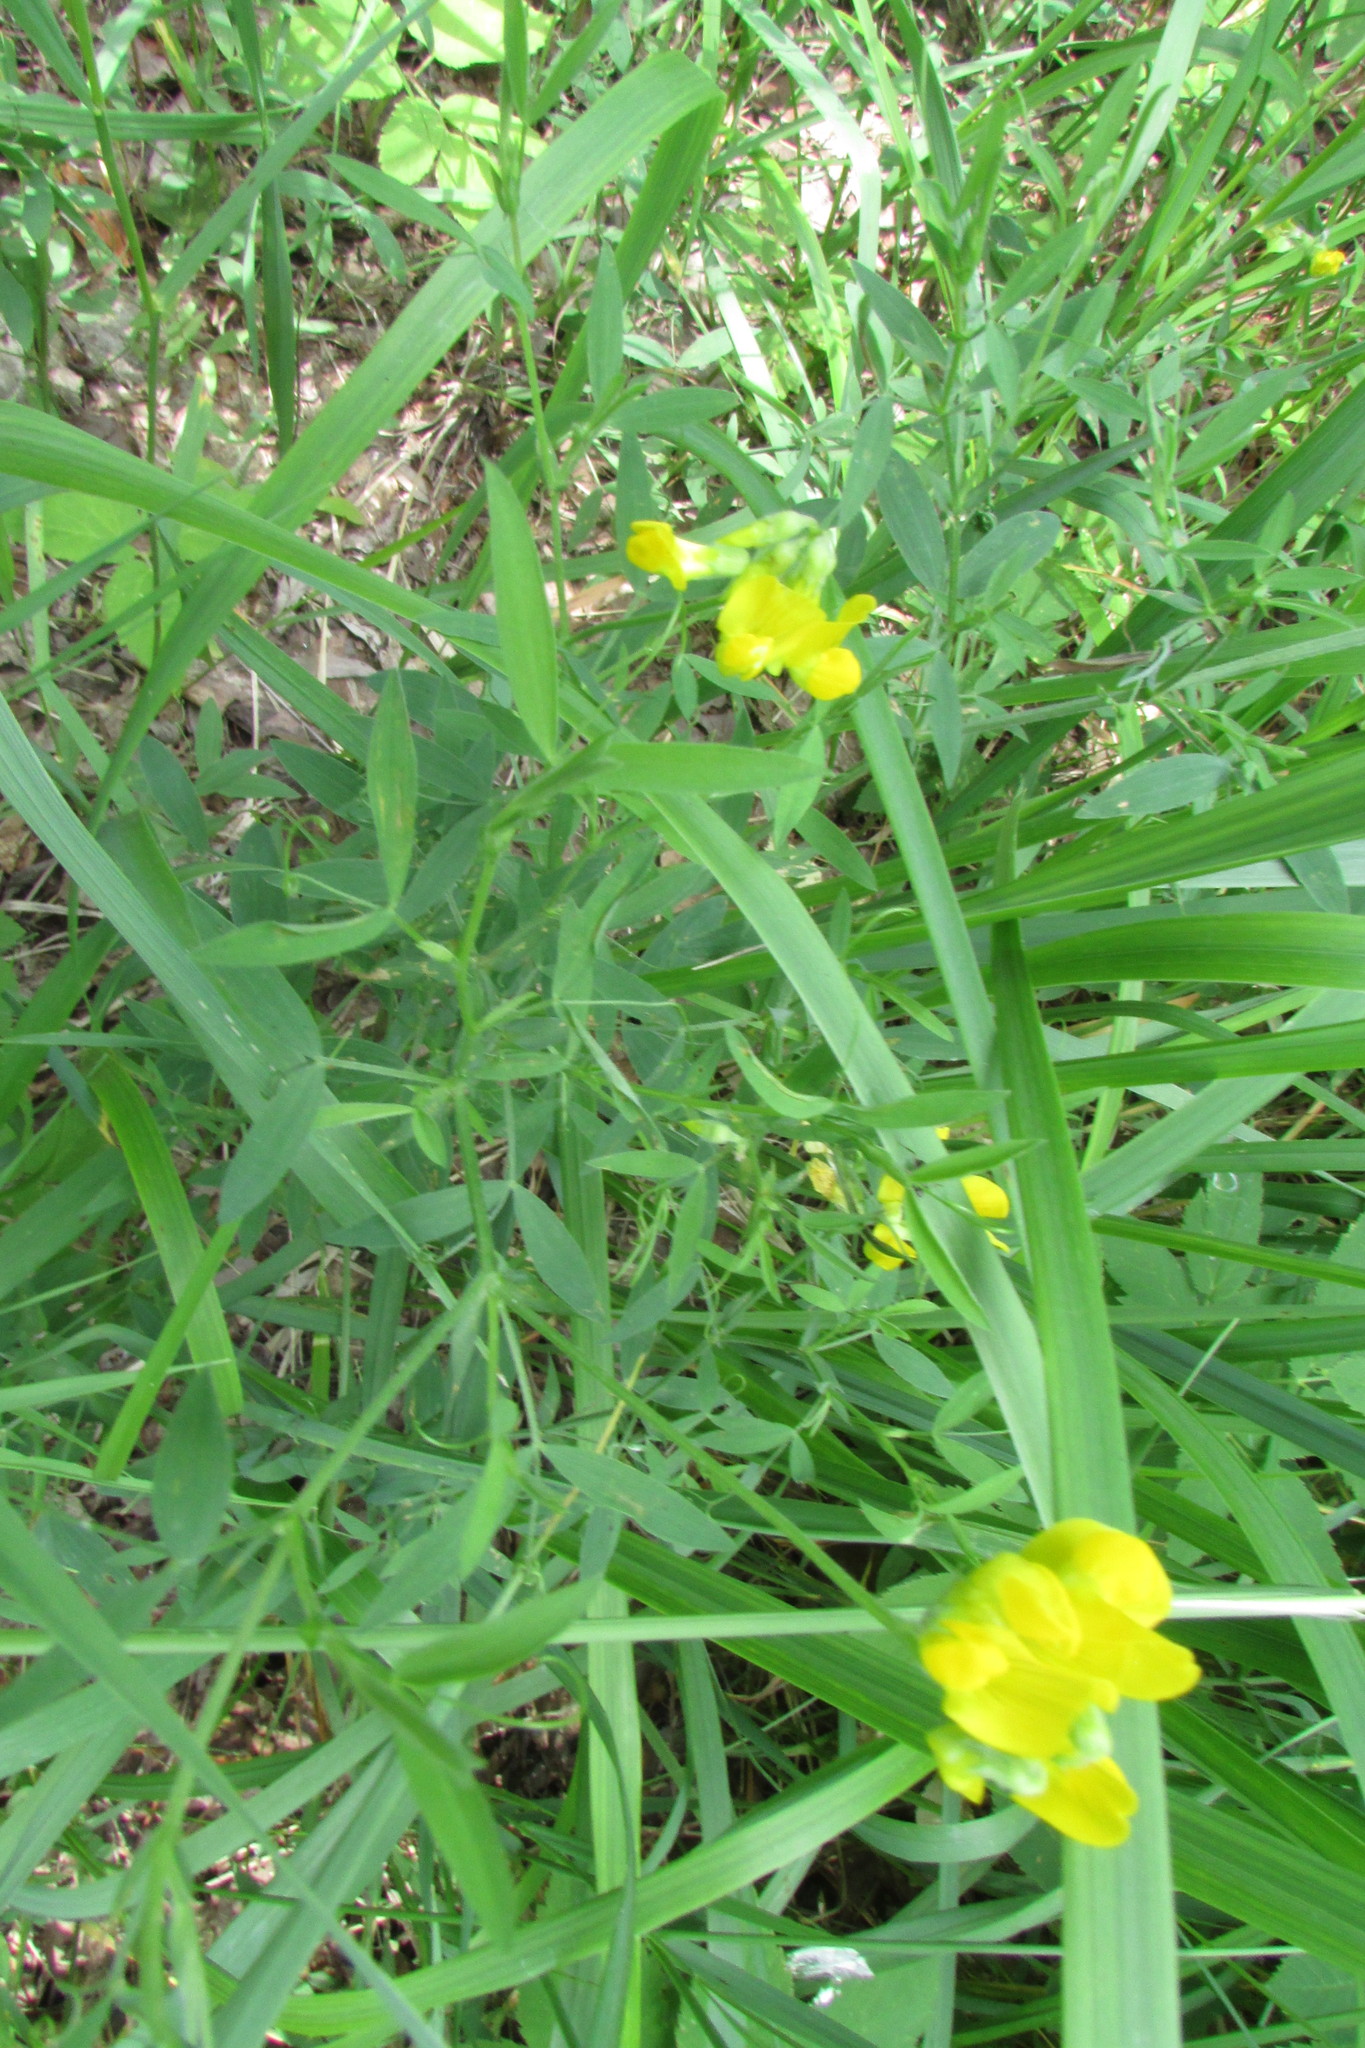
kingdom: Plantae
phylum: Tracheophyta
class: Magnoliopsida
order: Fabales
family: Fabaceae
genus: Lathyrus
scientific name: Lathyrus pratensis
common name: Meadow vetchling
